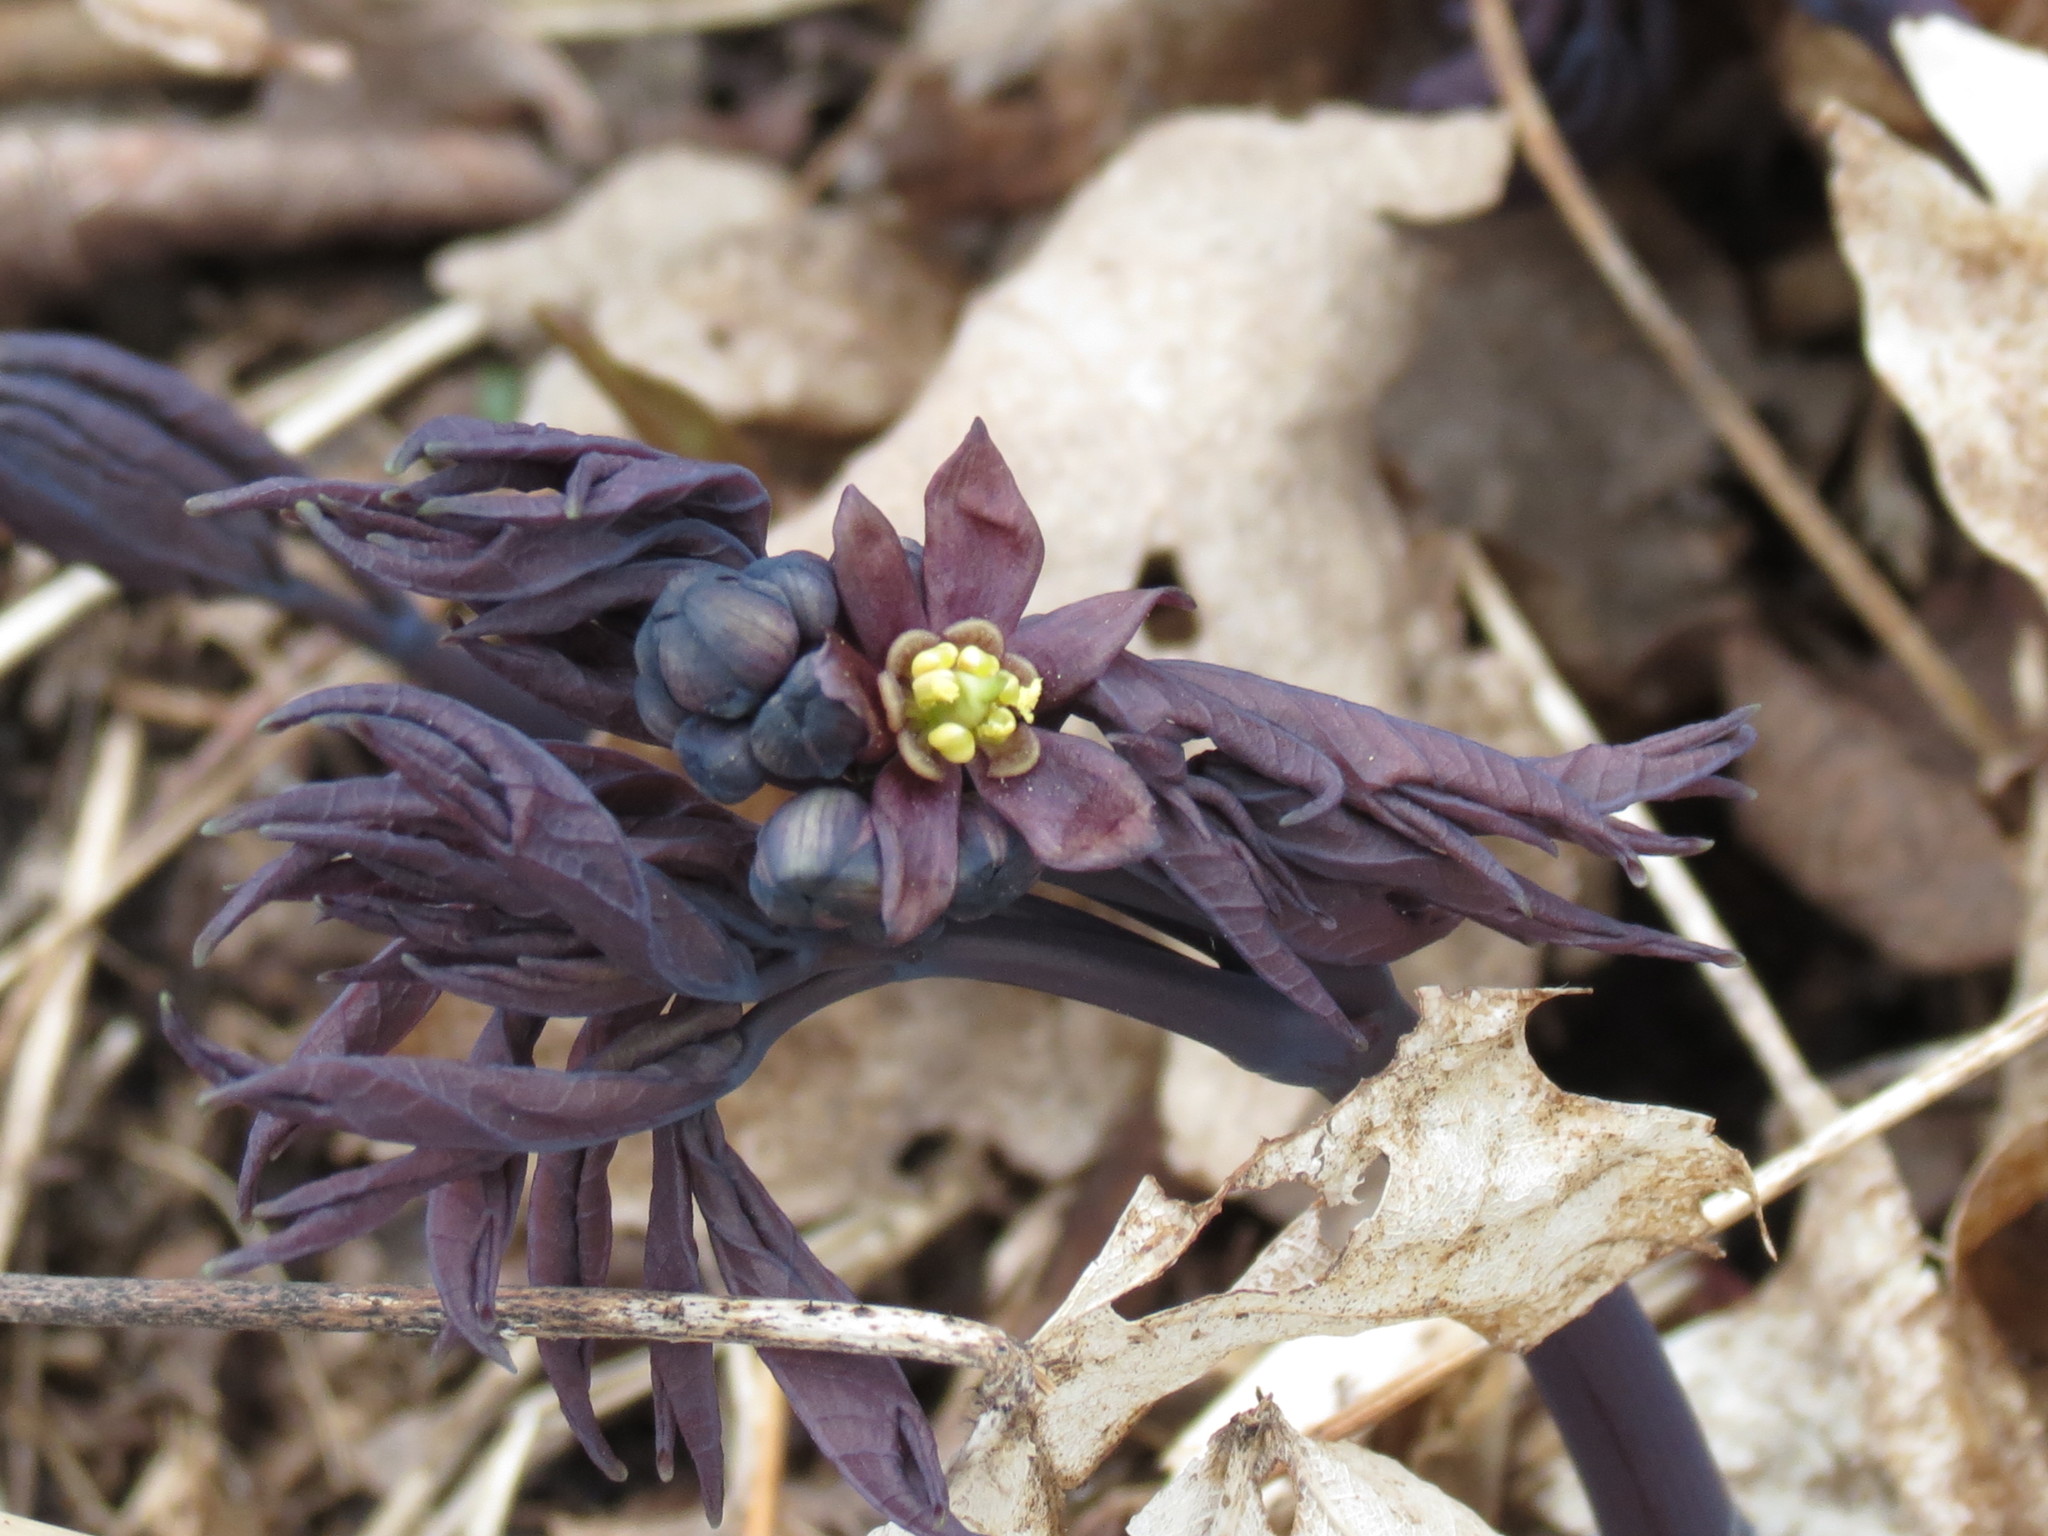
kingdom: Plantae
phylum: Tracheophyta
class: Magnoliopsida
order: Ranunculales
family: Berberidaceae
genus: Caulophyllum
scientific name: Caulophyllum giganteum
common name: Blue cohosh
